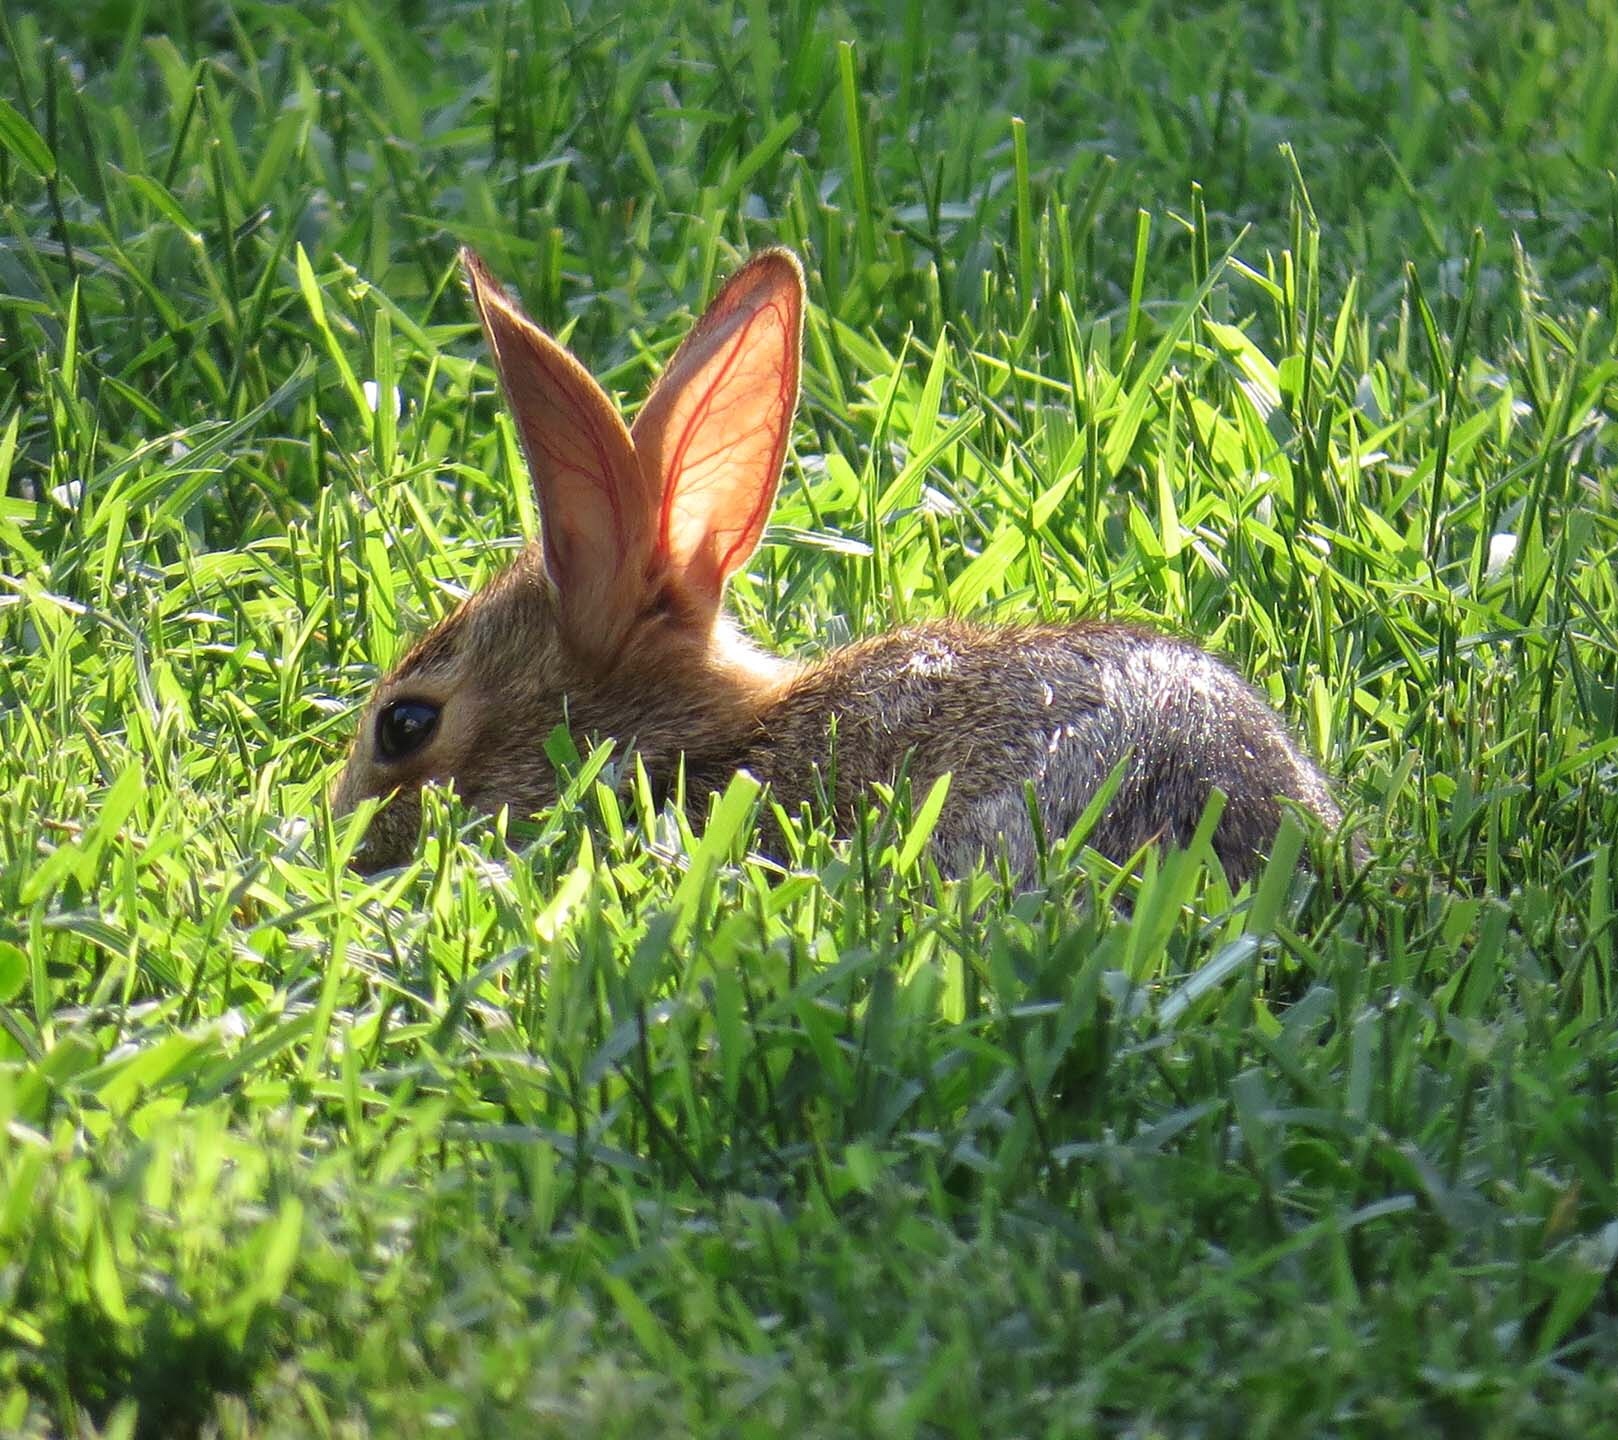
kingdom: Animalia
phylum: Chordata
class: Mammalia
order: Lagomorpha
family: Leporidae
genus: Sylvilagus
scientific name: Sylvilagus floridanus
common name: Eastern cottontail
